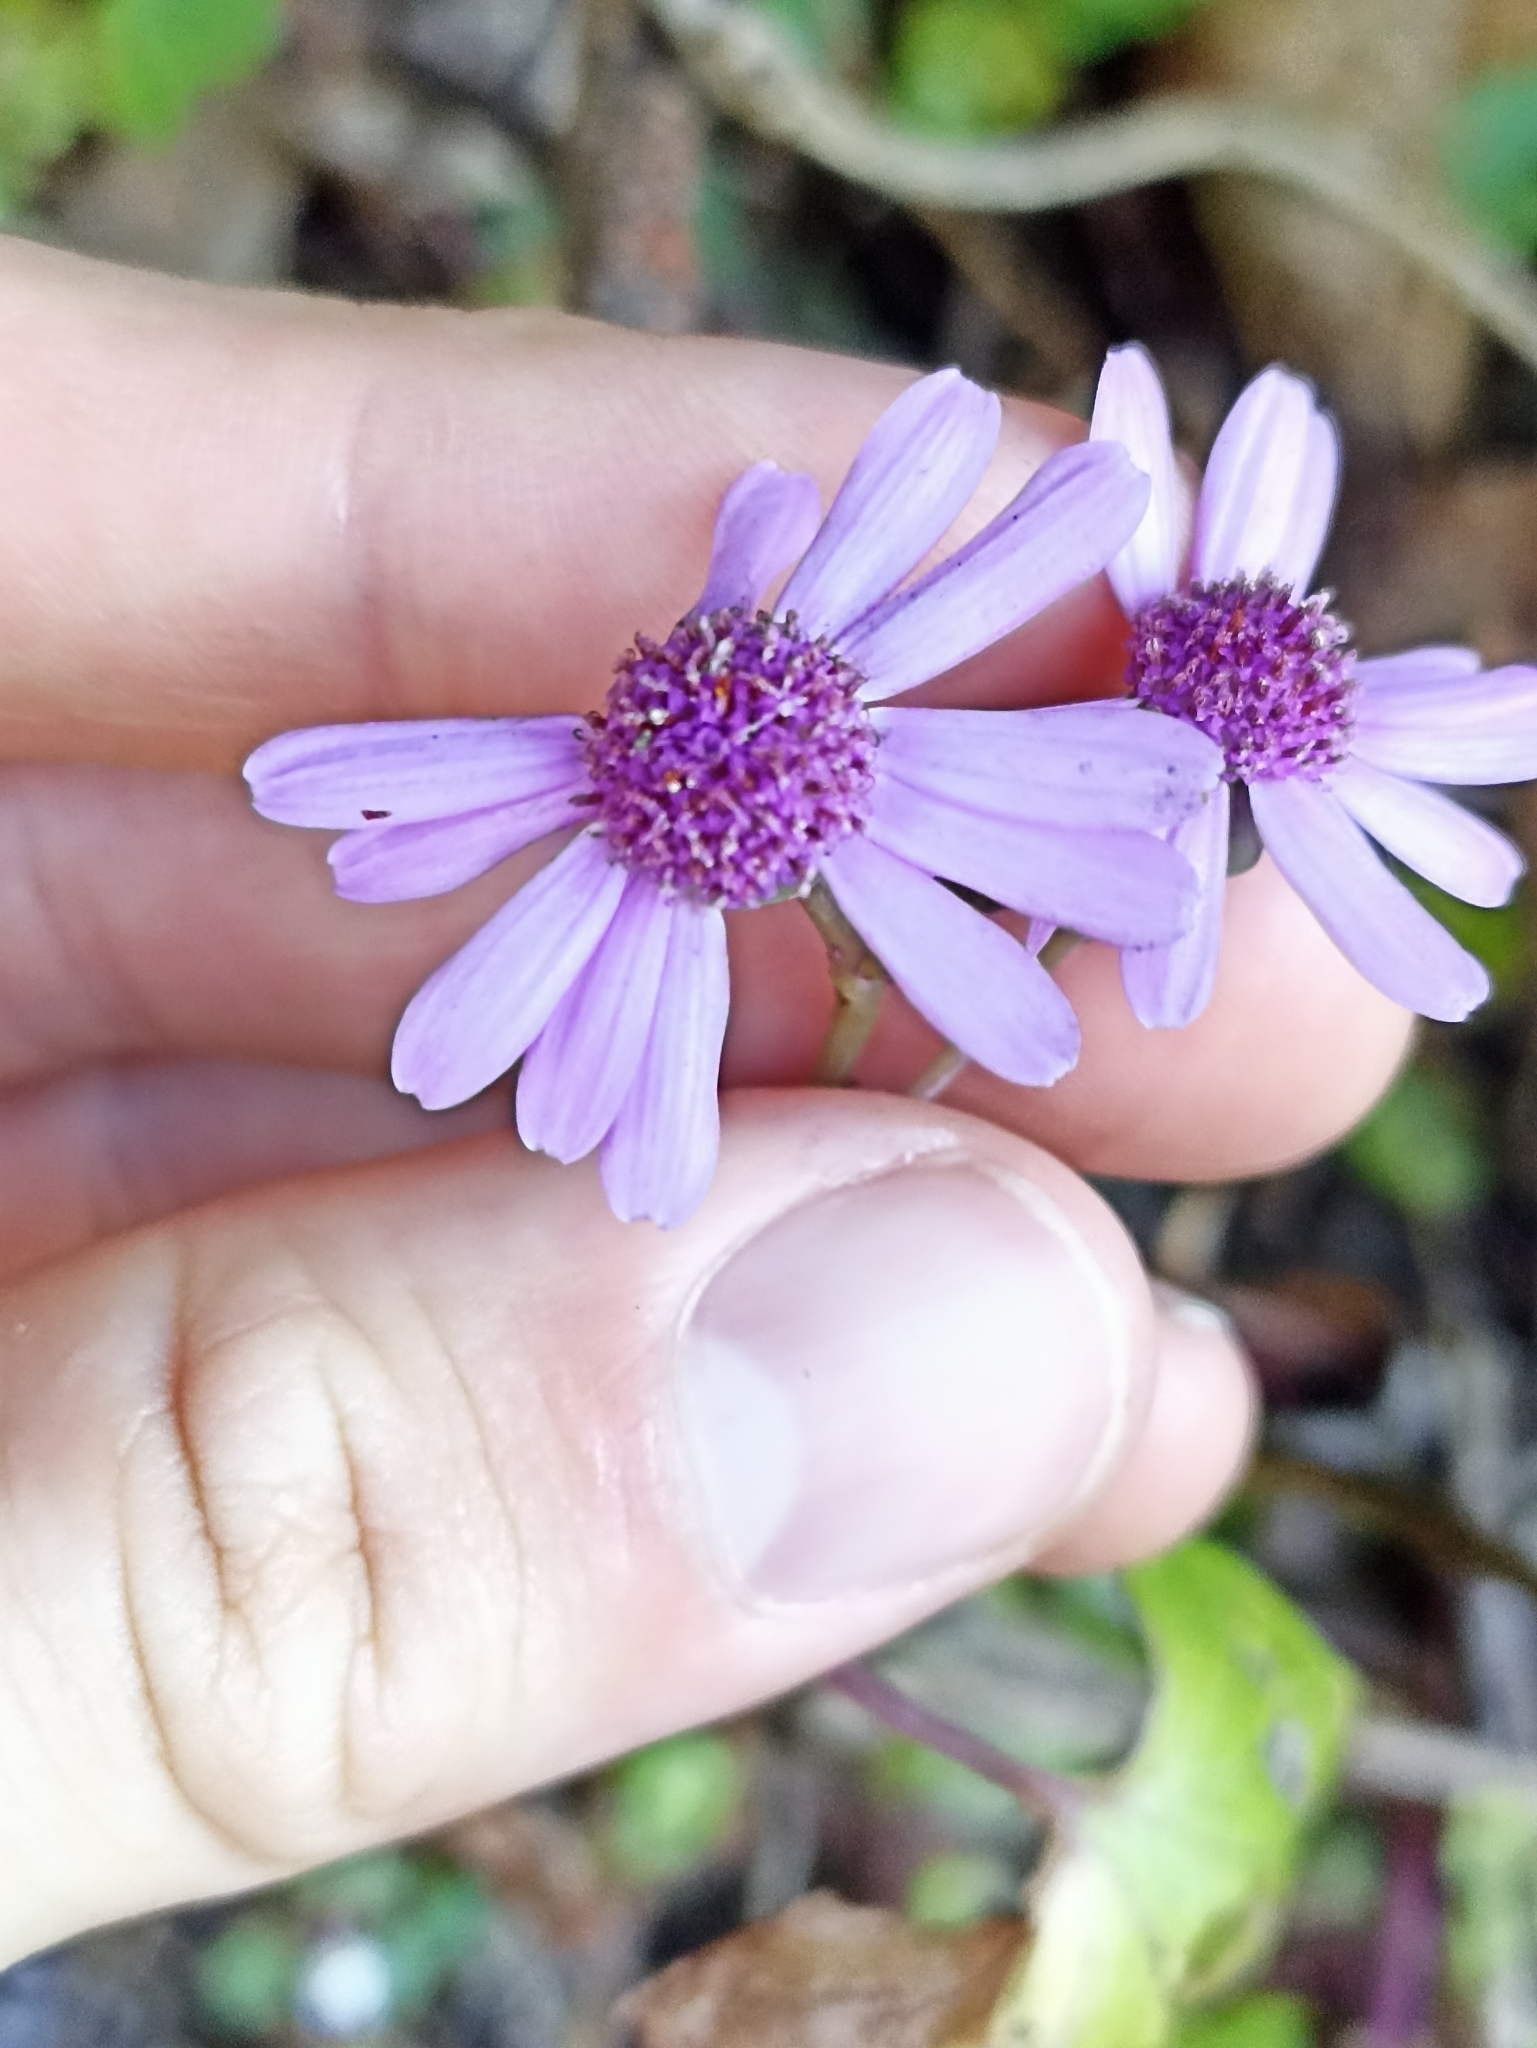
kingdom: Plantae
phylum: Tracheophyta
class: Magnoliopsida
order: Asterales
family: Asteraceae
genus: Pericallis
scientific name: Pericallis hybrida
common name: Cineraria
